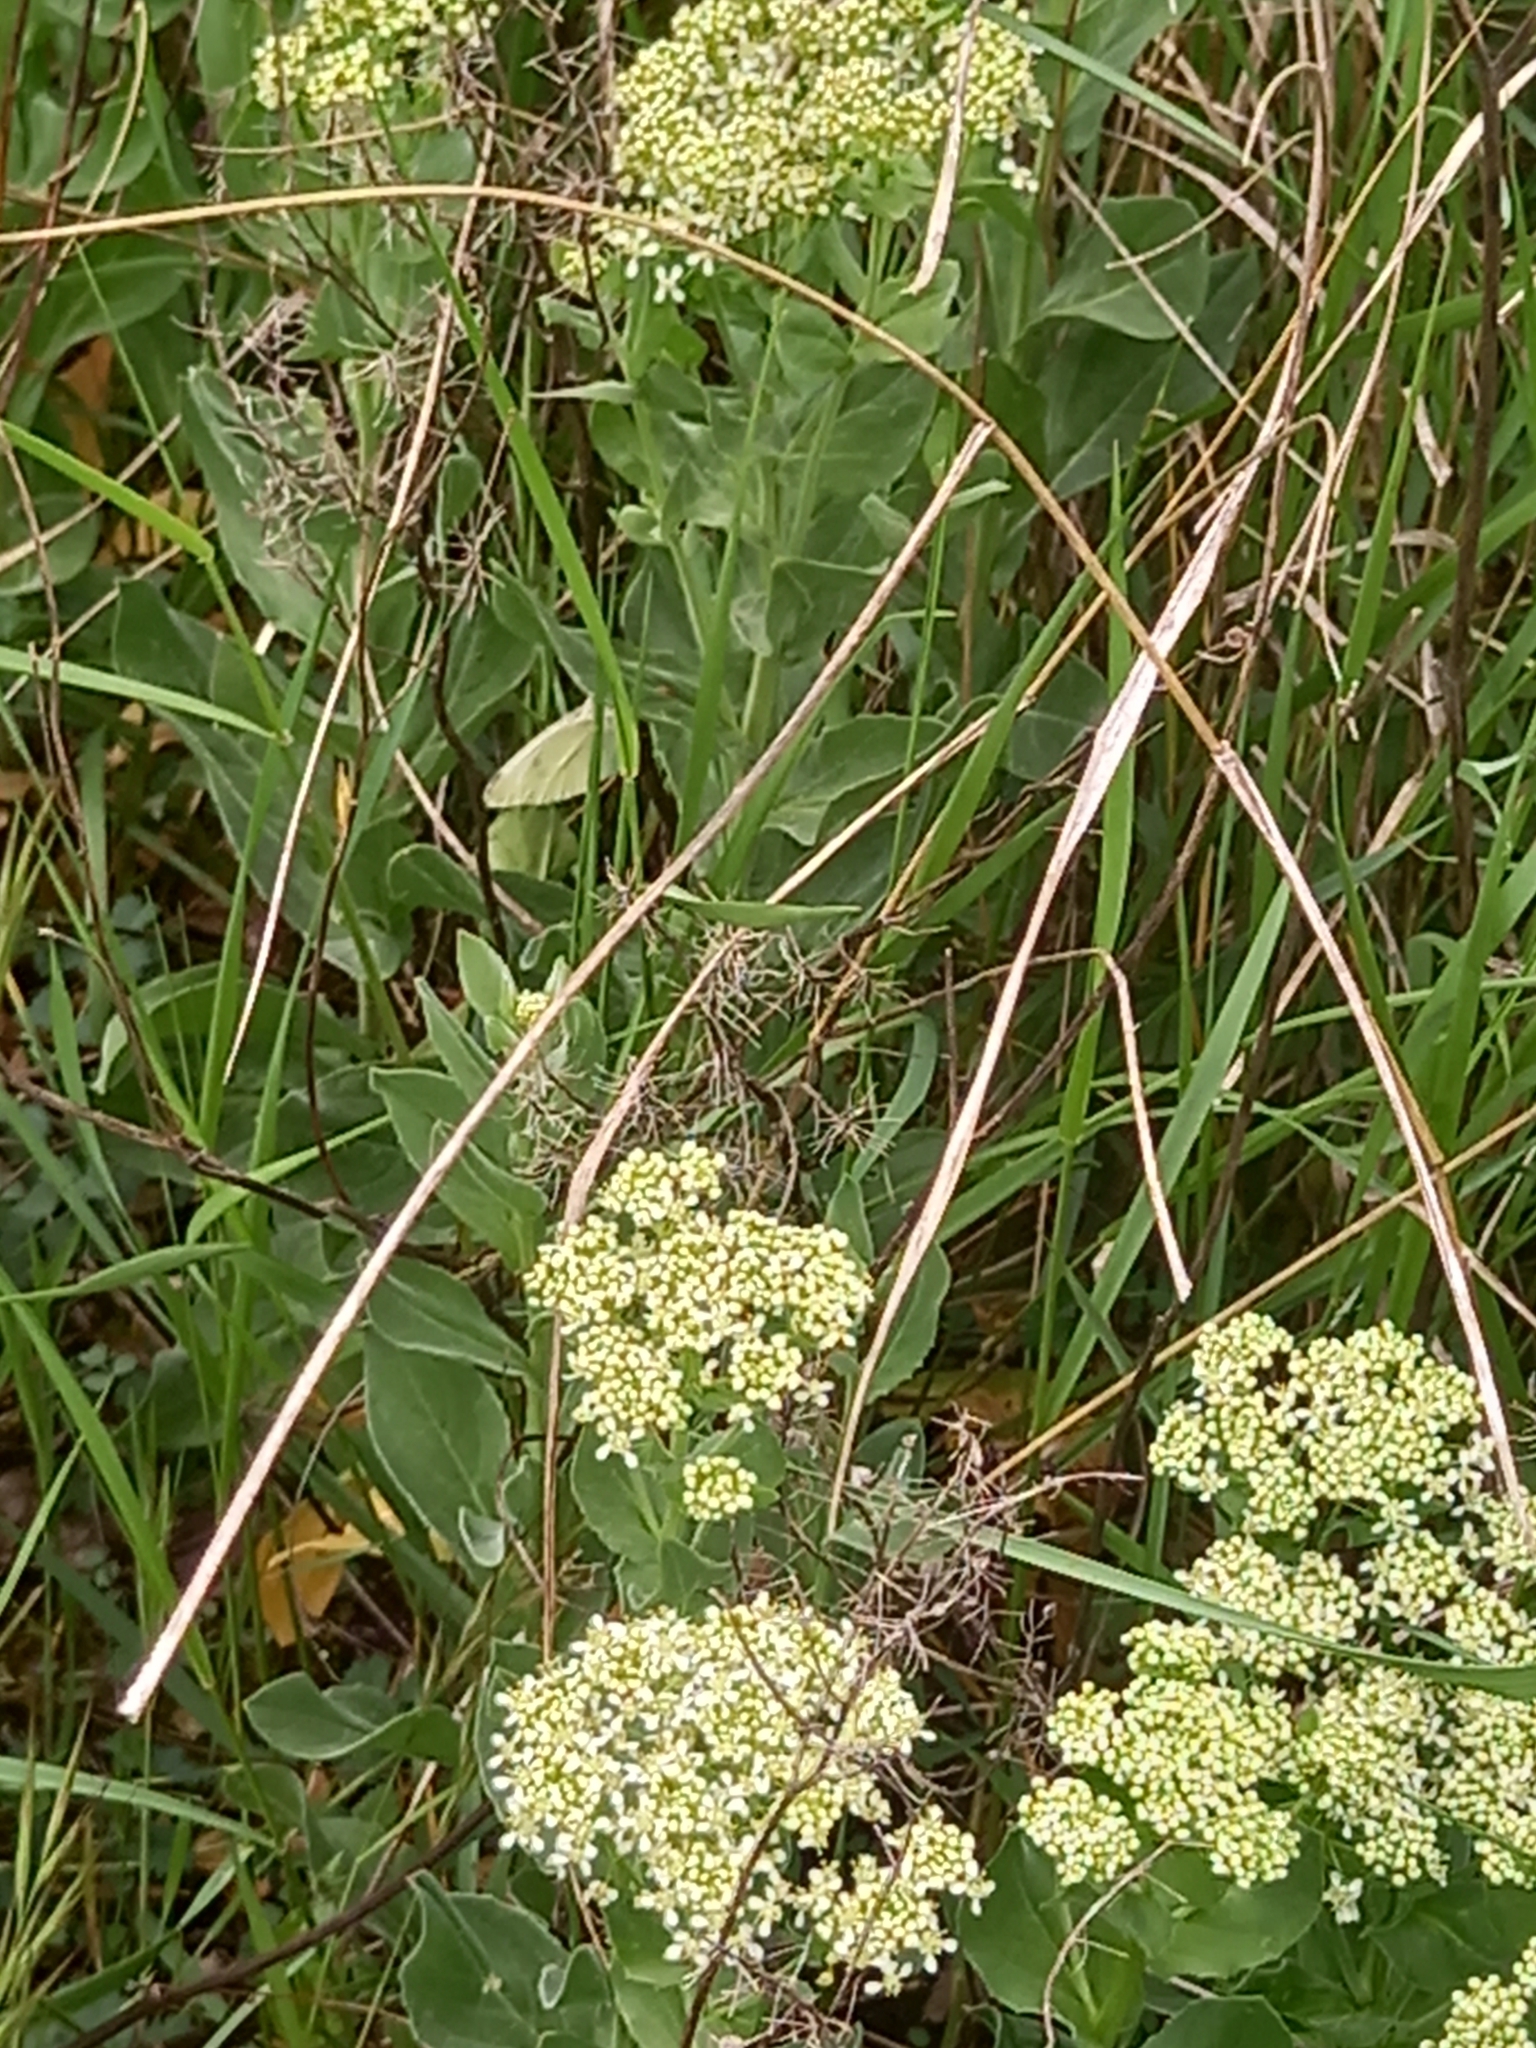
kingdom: Animalia
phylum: Arthropoda
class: Insecta
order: Lepidoptera
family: Pieridae
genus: Pieris
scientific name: Pieris rapae
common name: Small white
